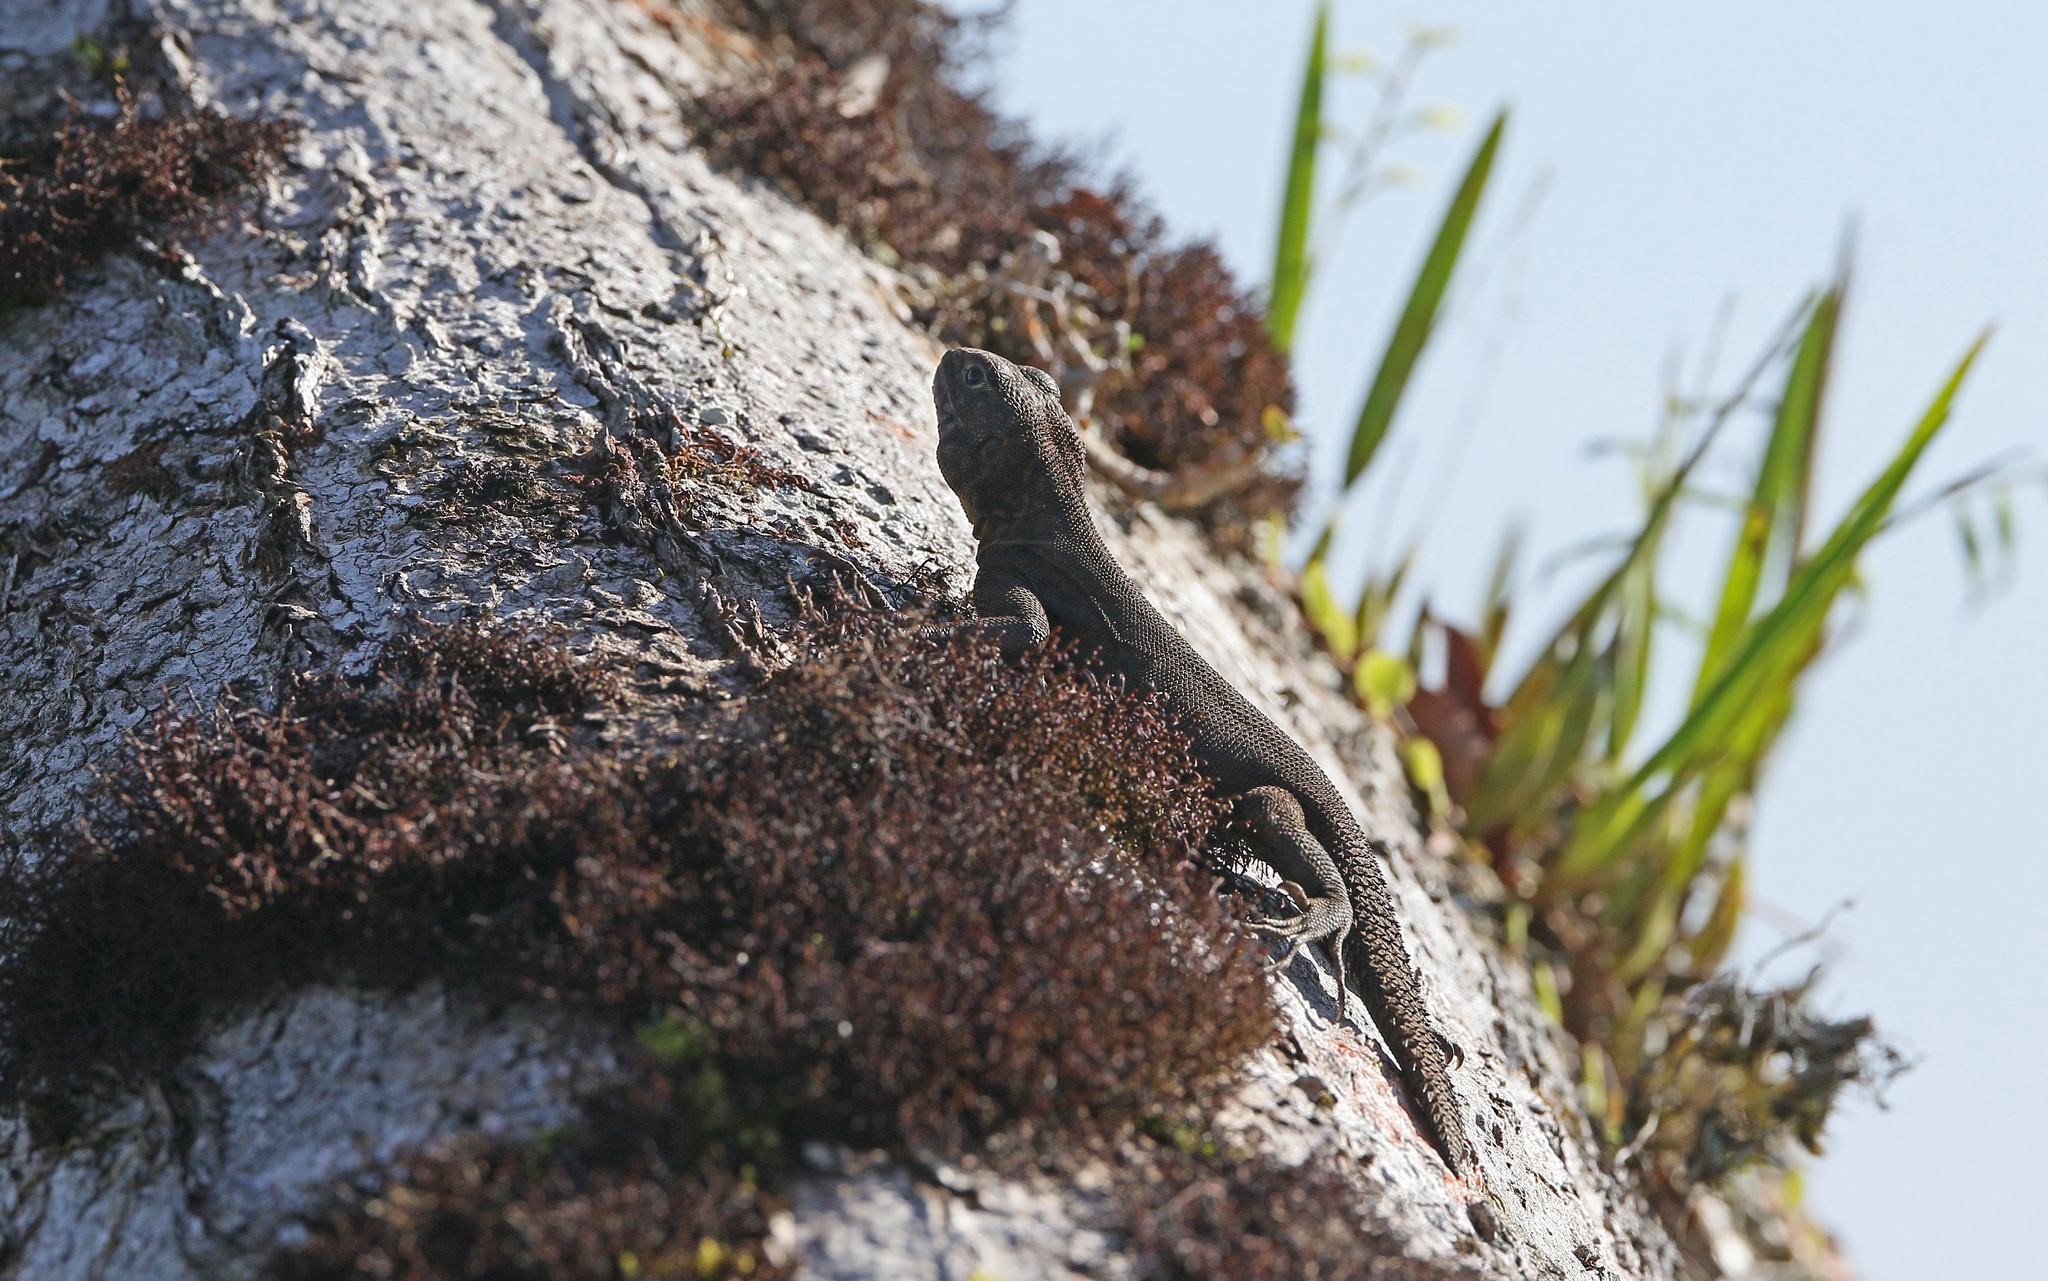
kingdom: Animalia
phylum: Chordata
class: Squamata
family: Tropiduridae
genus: Uracentron
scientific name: Uracentron flaviceps
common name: Tropical thornytail iguana
